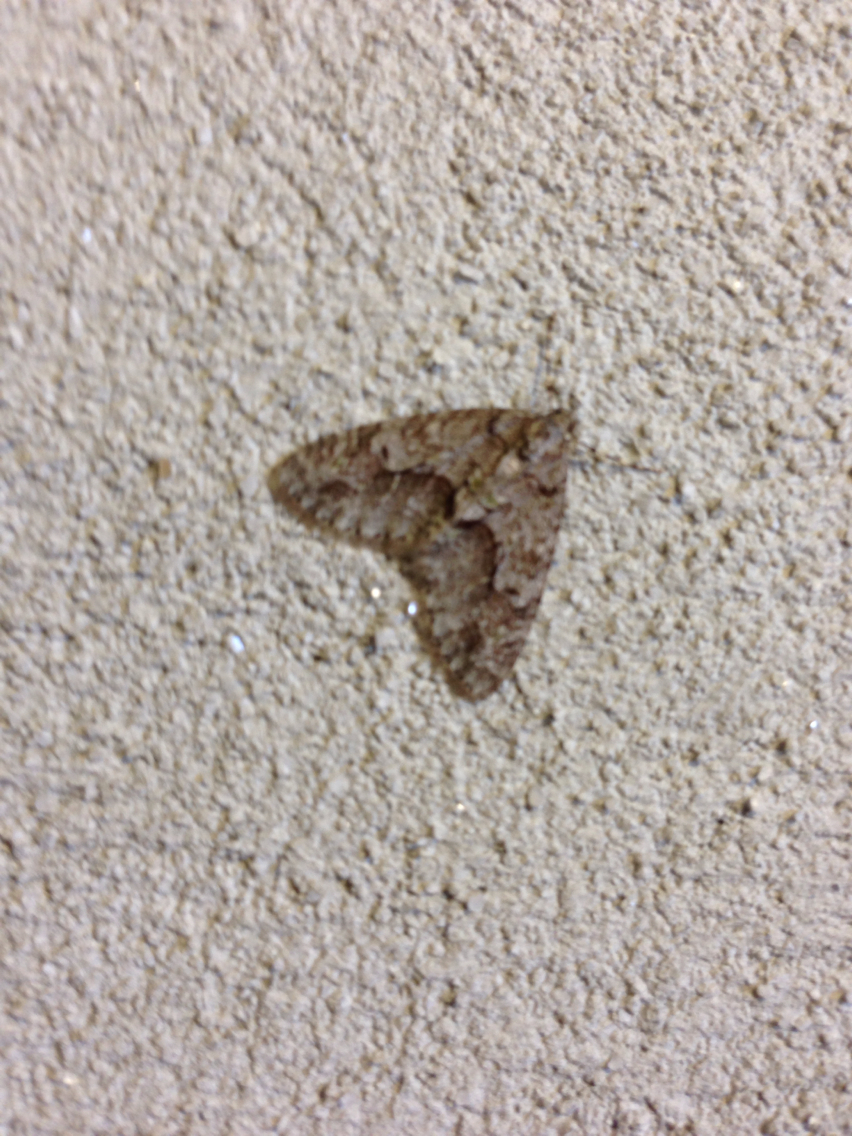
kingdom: Animalia
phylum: Arthropoda
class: Insecta
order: Lepidoptera
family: Geometridae
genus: Cladara
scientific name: Cladara limitaria
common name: Mottled gray carpet
